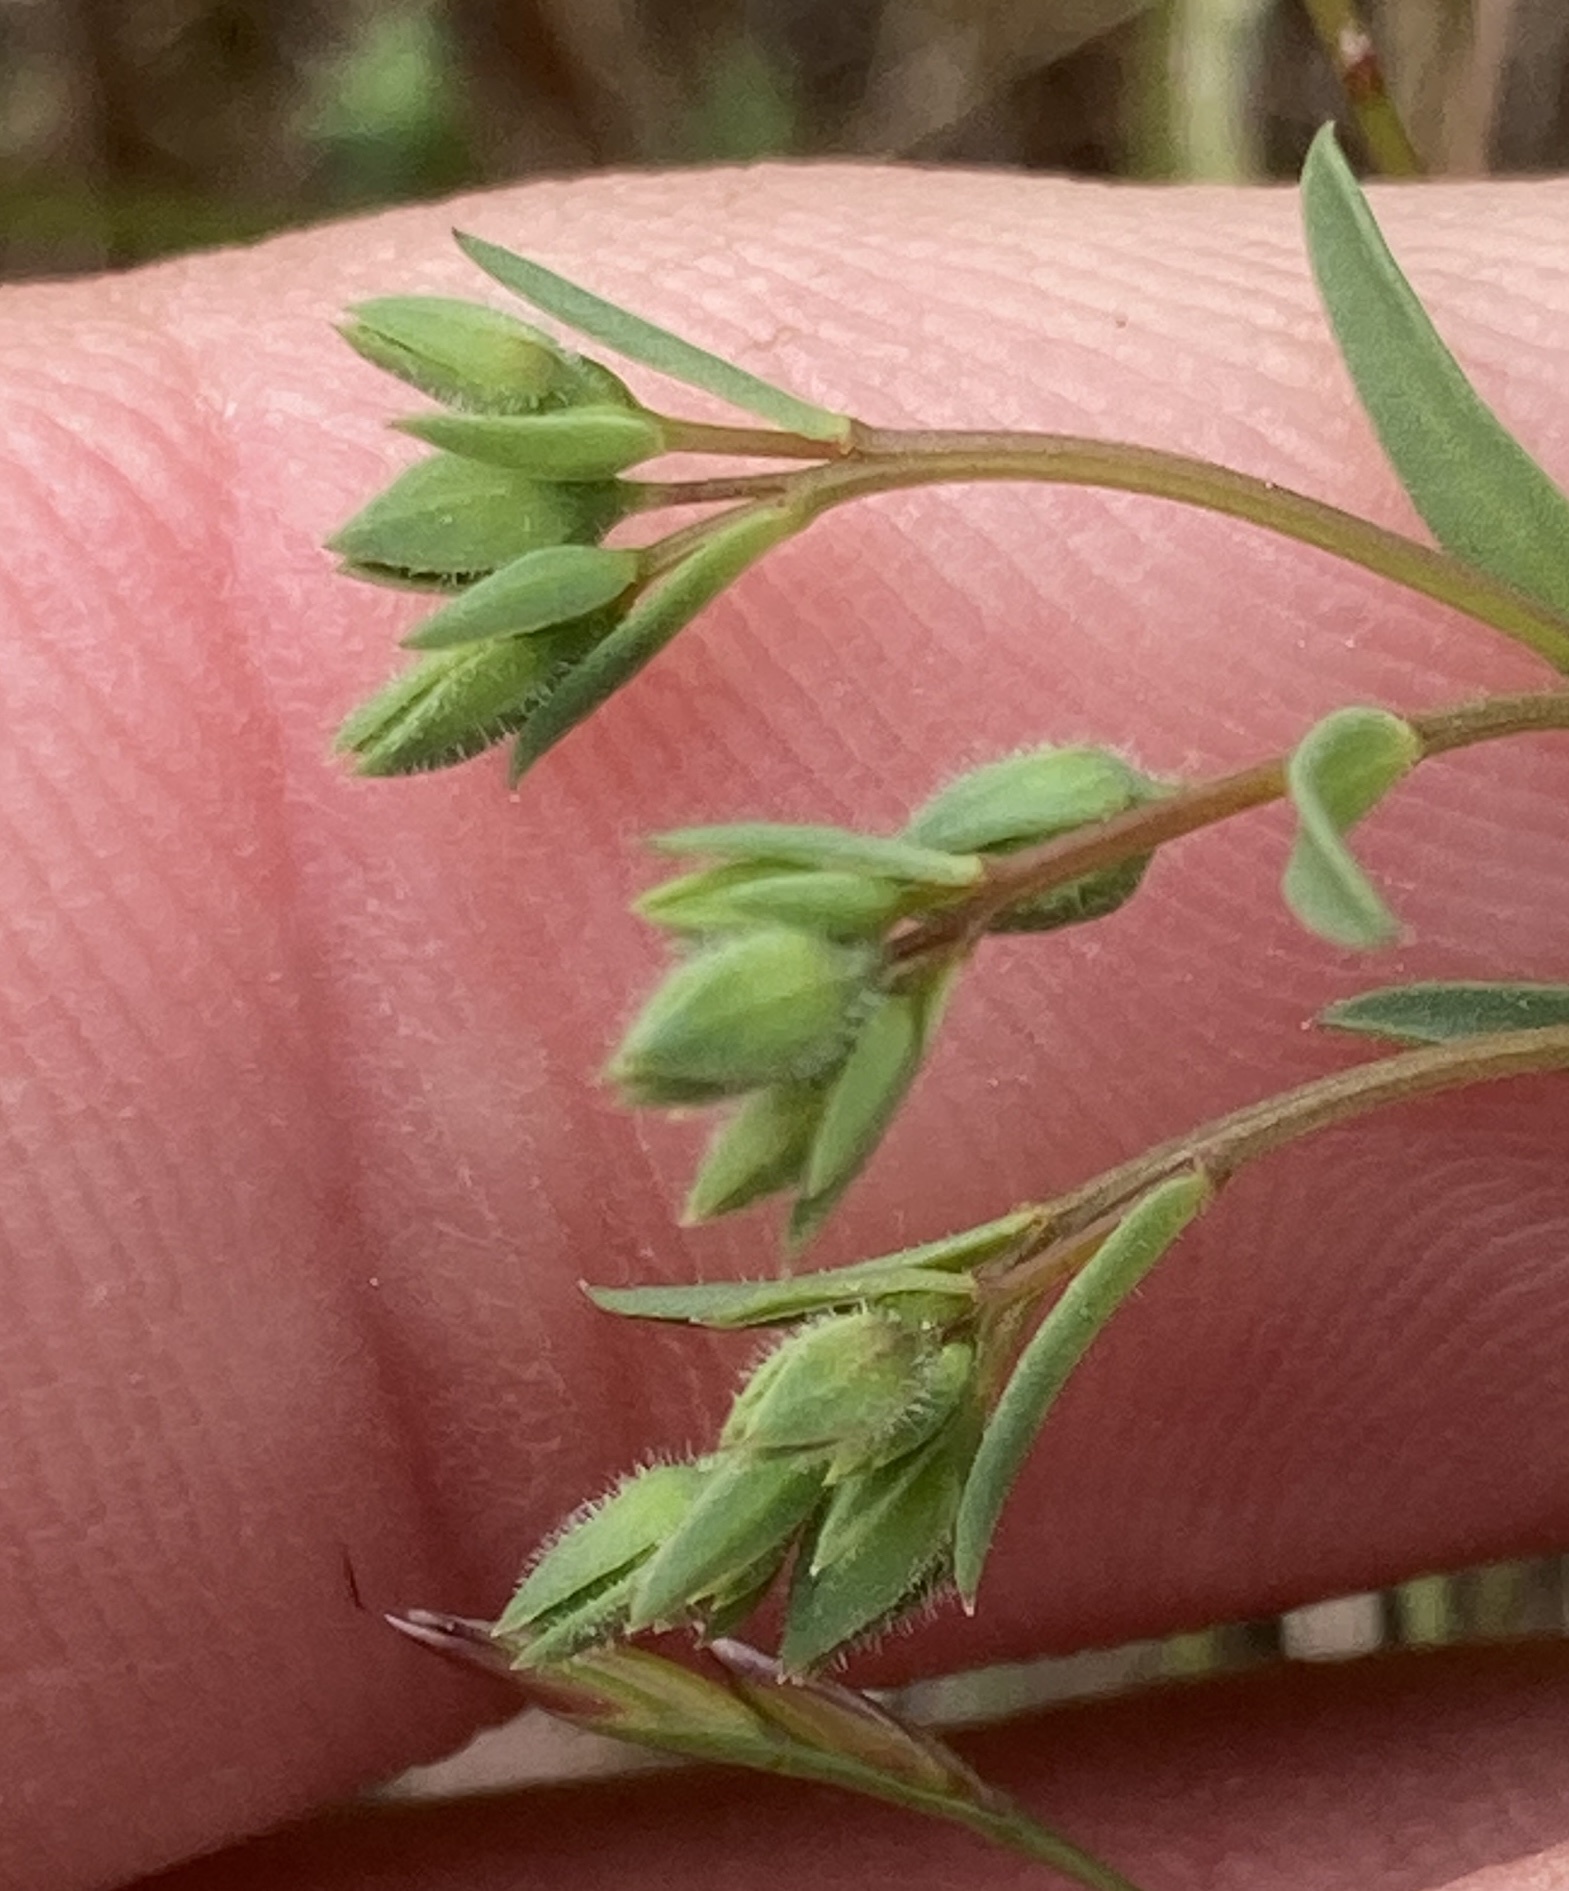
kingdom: Plantae
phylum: Tracheophyta
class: Magnoliopsida
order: Malpighiales
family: Linaceae
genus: Hesperolinon
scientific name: Hesperolinon congestum
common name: Marin dwarf-flax
